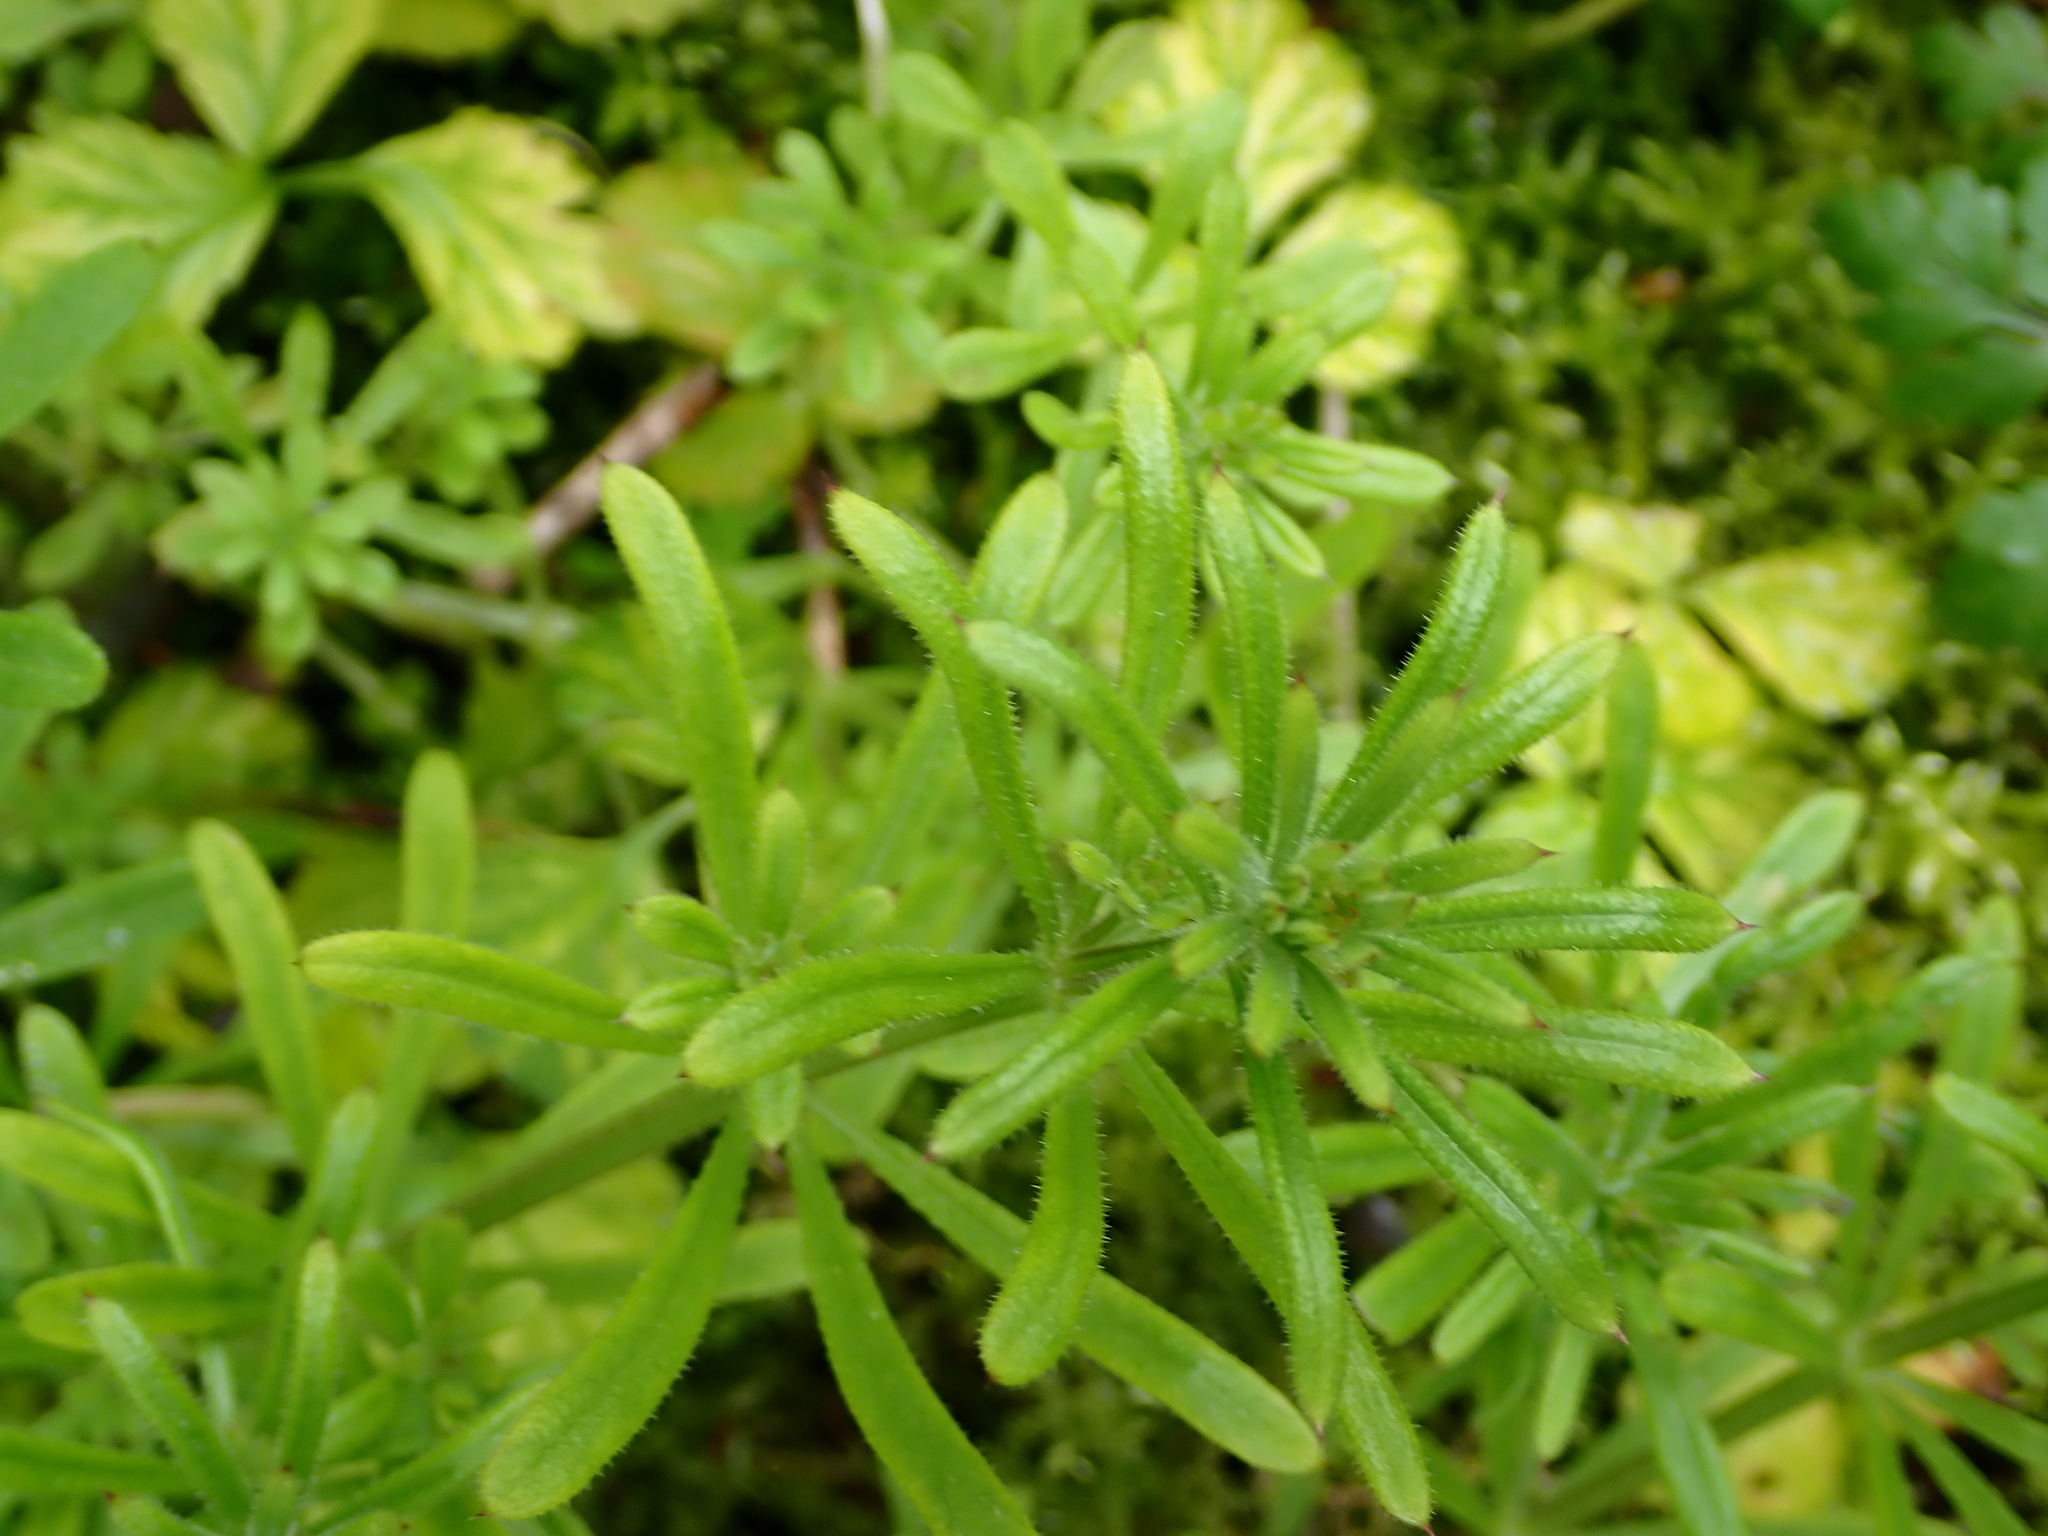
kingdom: Plantae
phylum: Tracheophyta
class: Magnoliopsida
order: Gentianales
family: Rubiaceae
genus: Galium
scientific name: Galium aparine
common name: Cleavers
